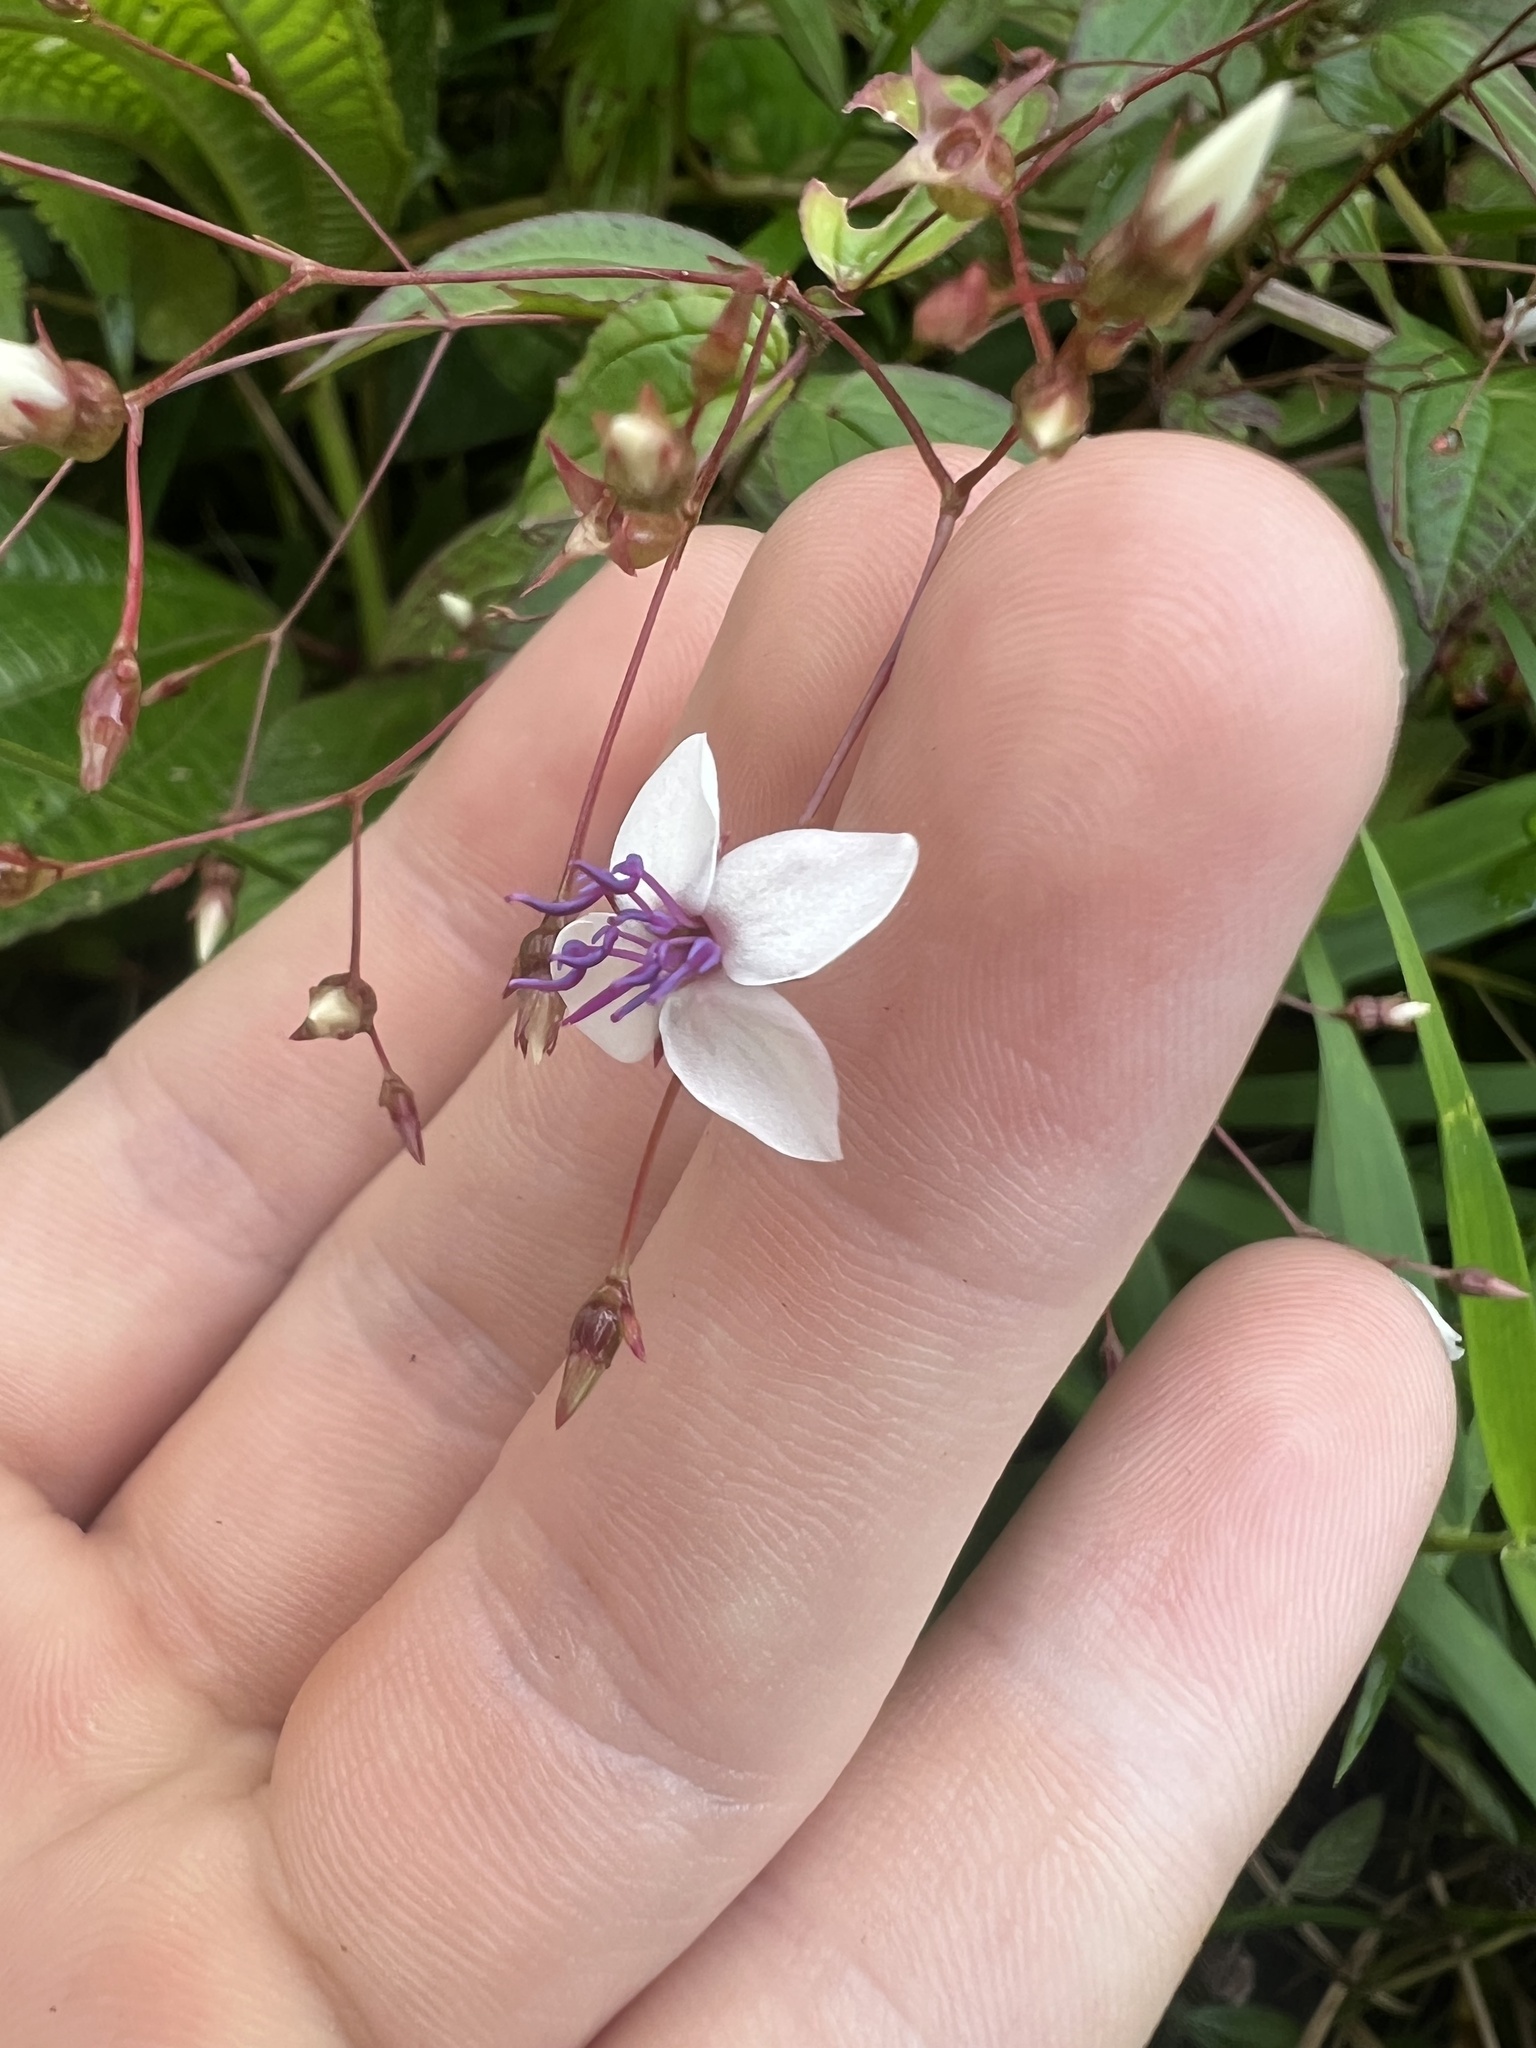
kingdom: Plantae
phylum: Tracheophyta
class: Magnoliopsida
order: Myrtales
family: Melastomataceae
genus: Nepsera
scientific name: Nepsera aquatica
